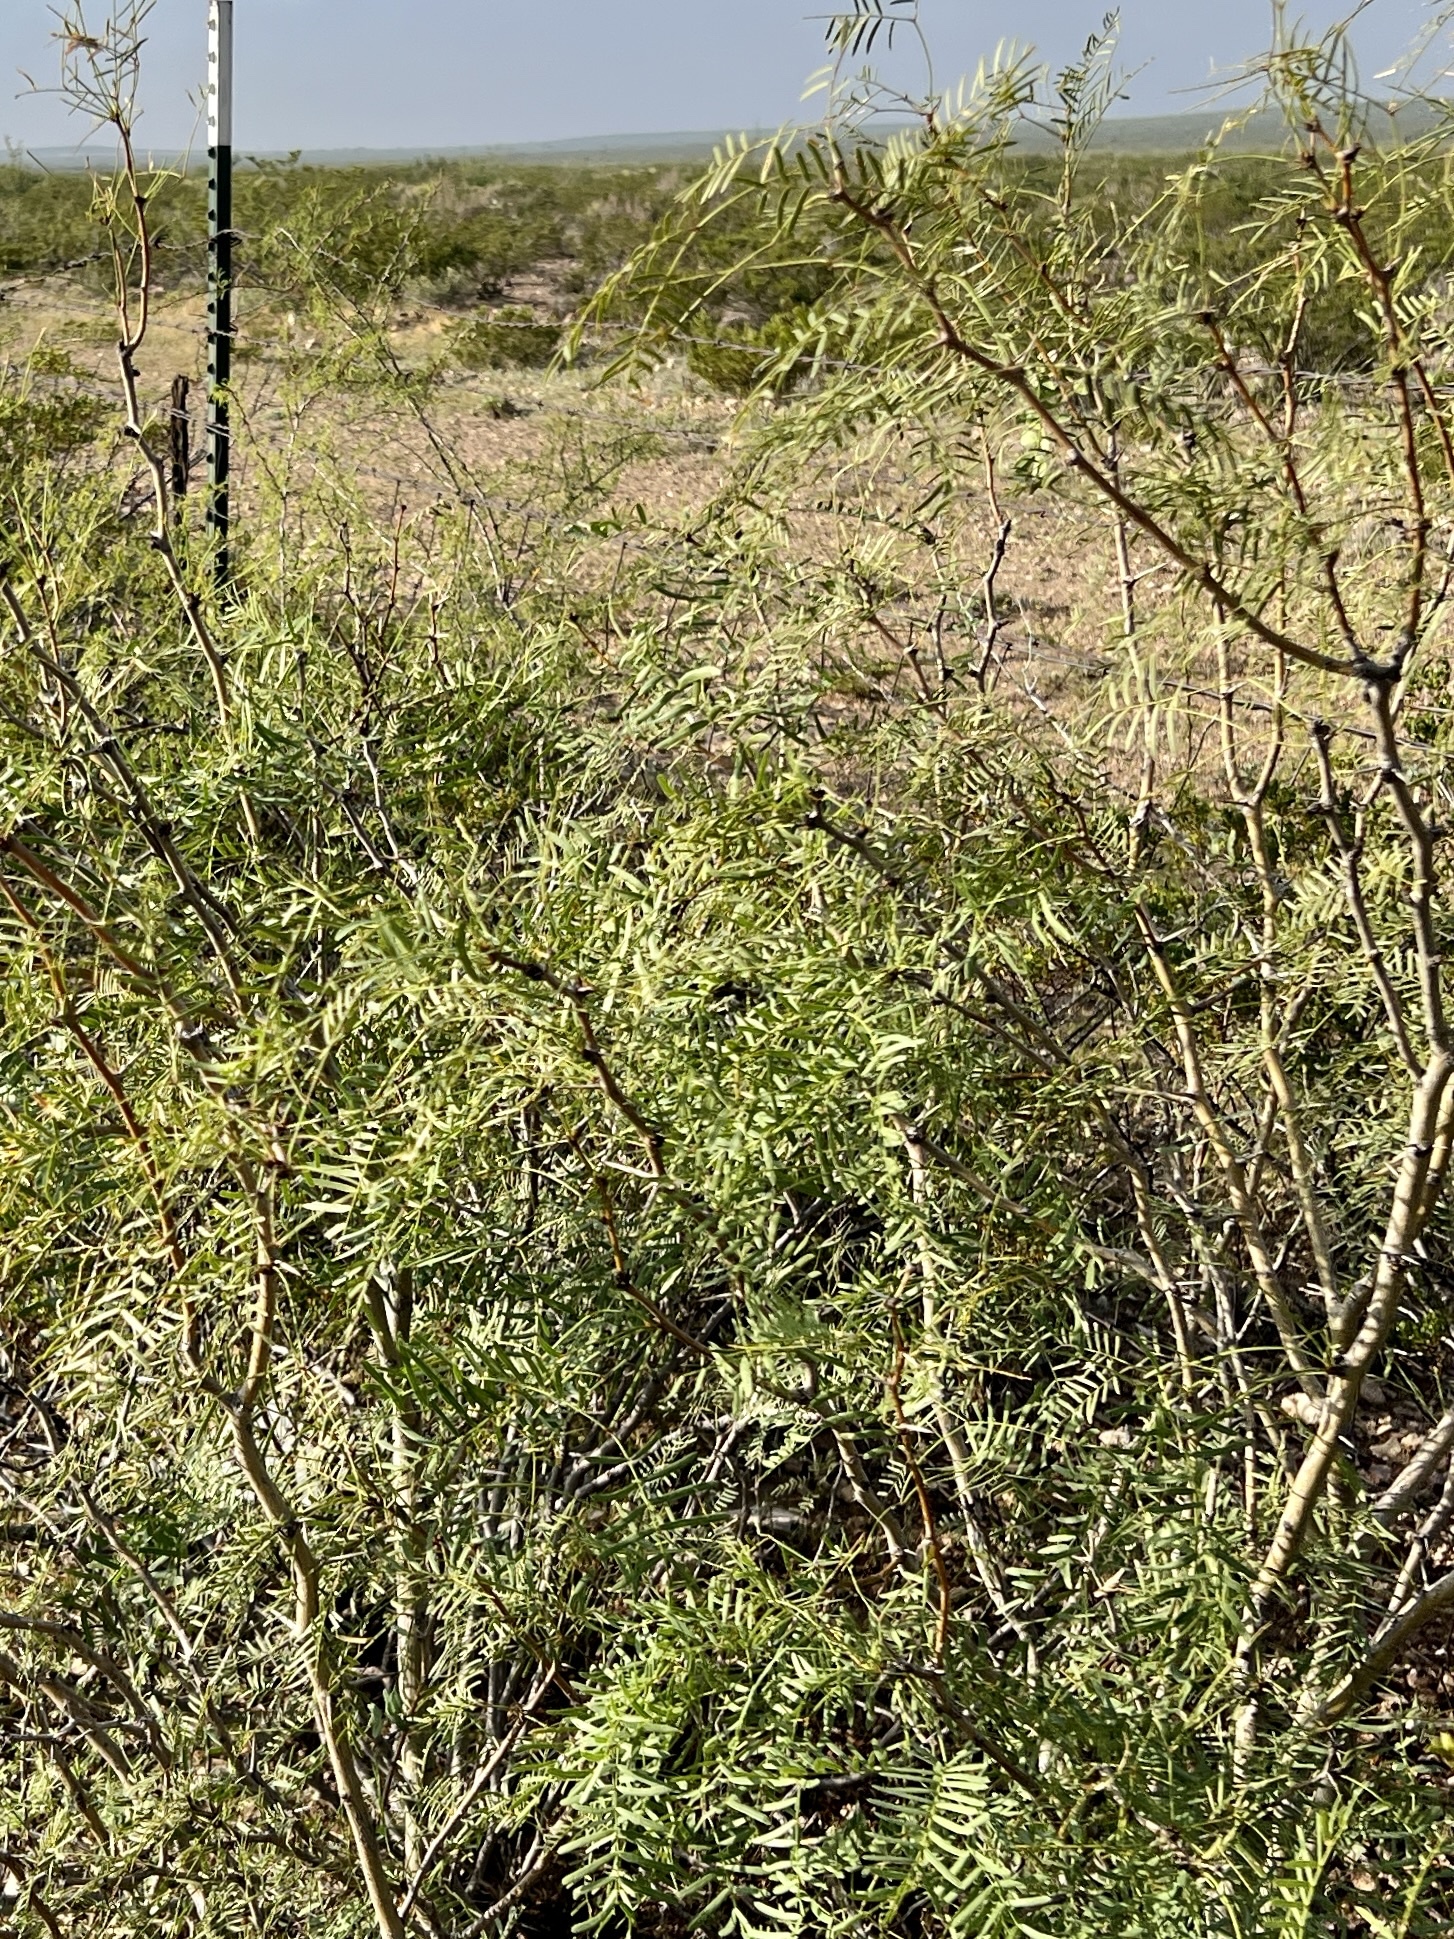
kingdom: Plantae
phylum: Tracheophyta
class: Magnoliopsida
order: Fabales
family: Fabaceae
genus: Prosopis
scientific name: Prosopis glandulosa
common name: Honey mesquite
